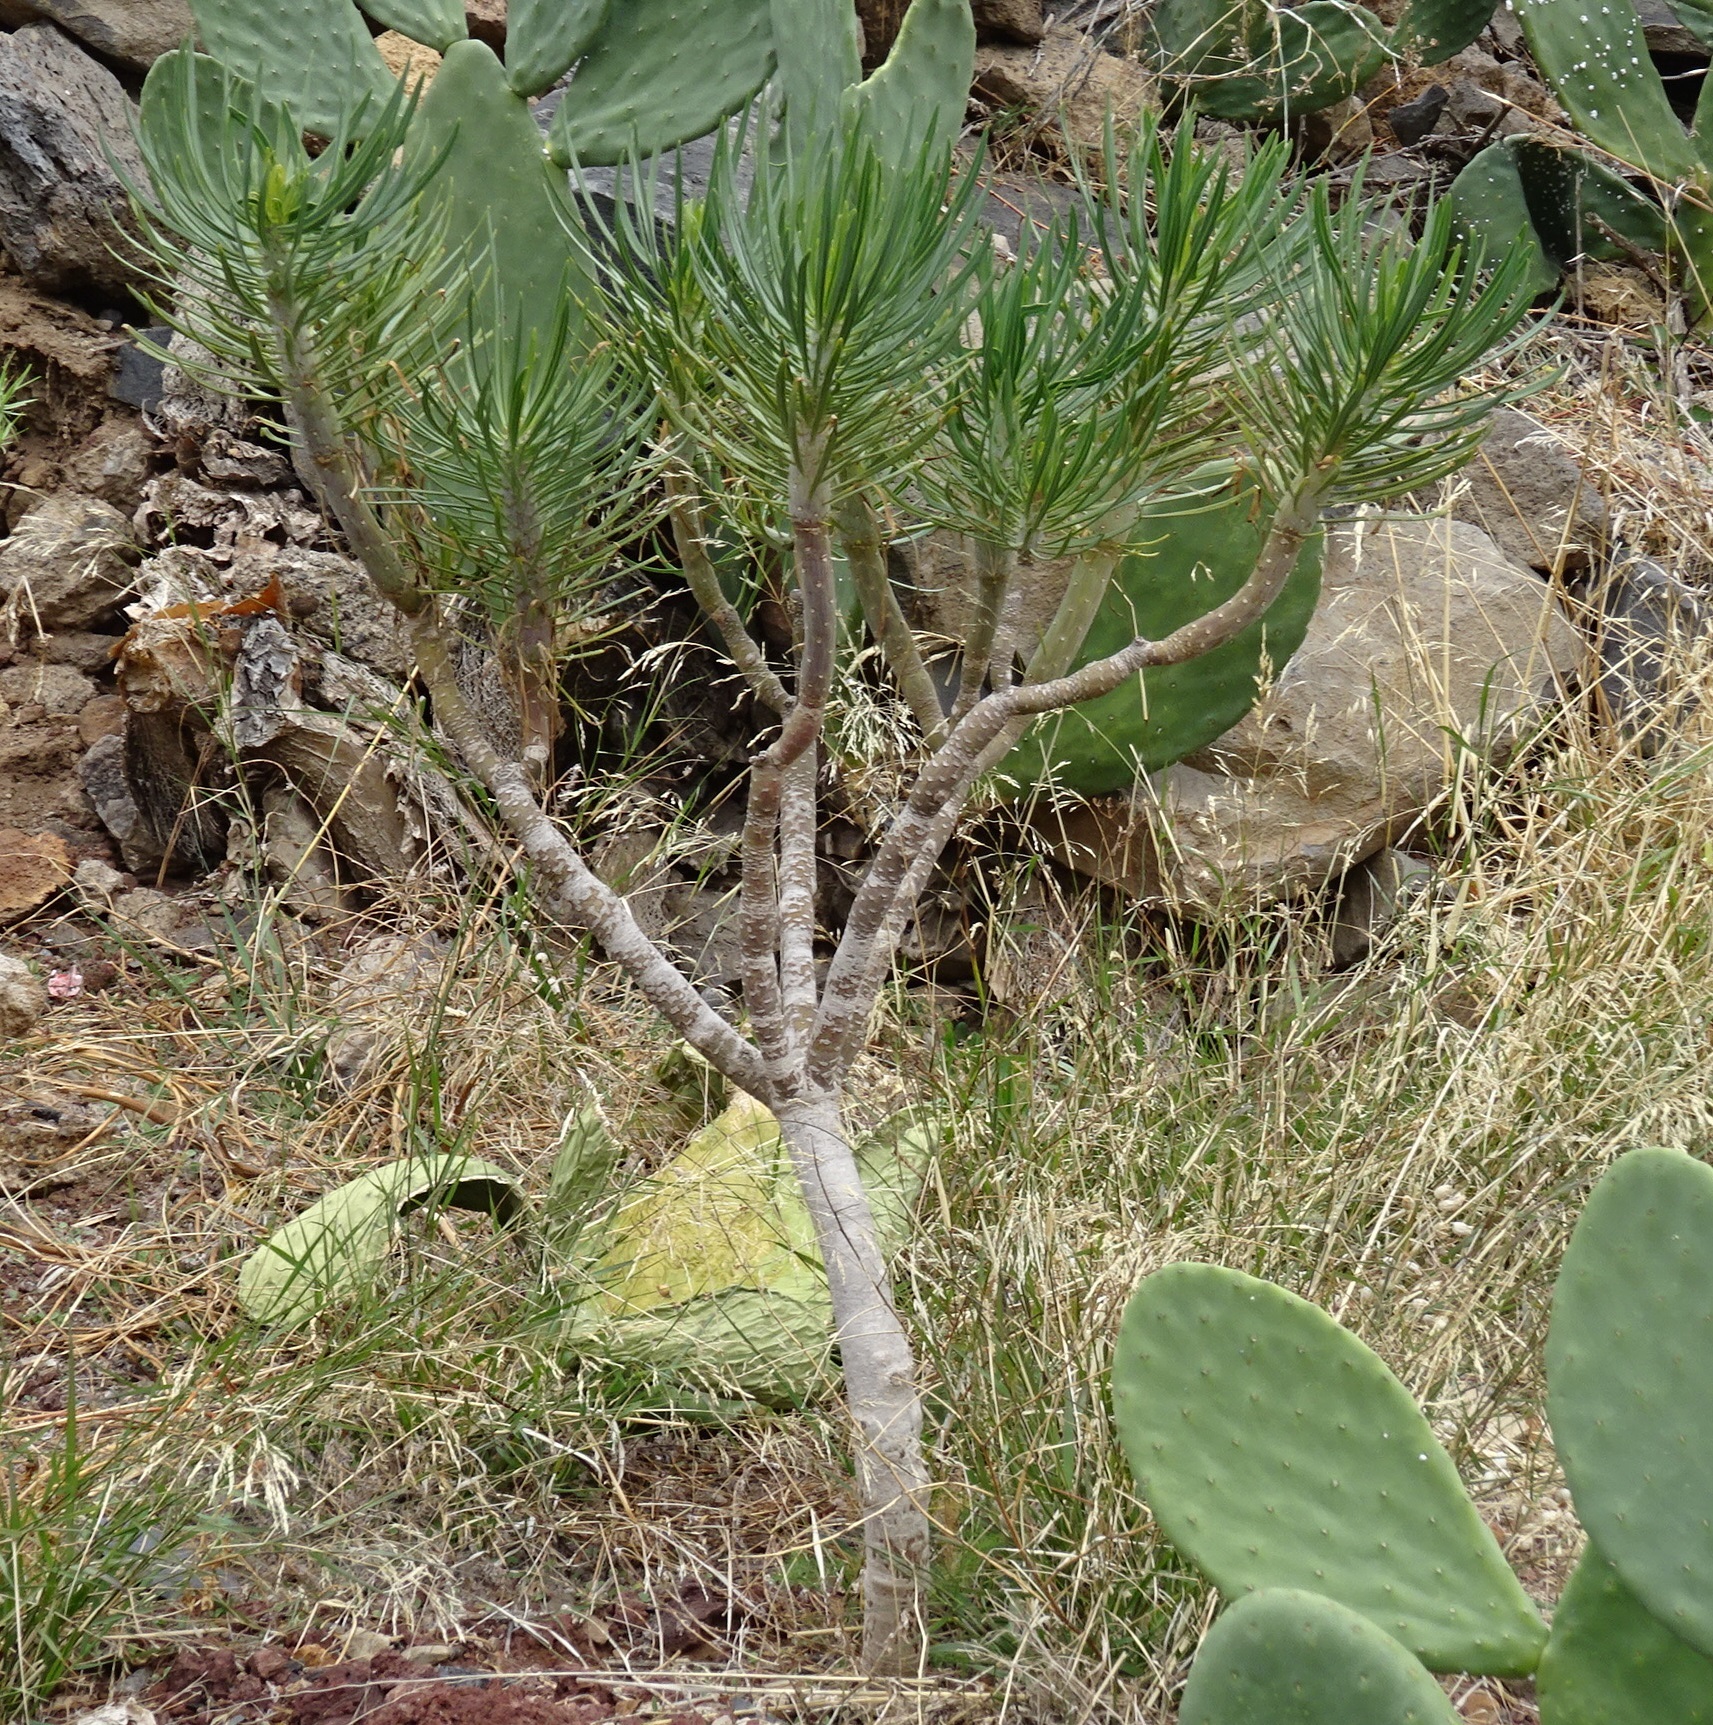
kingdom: Plantae
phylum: Tracheophyta
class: Magnoliopsida
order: Asterales
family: Asteraceae
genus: Kleinia
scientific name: Kleinia neriifolia
